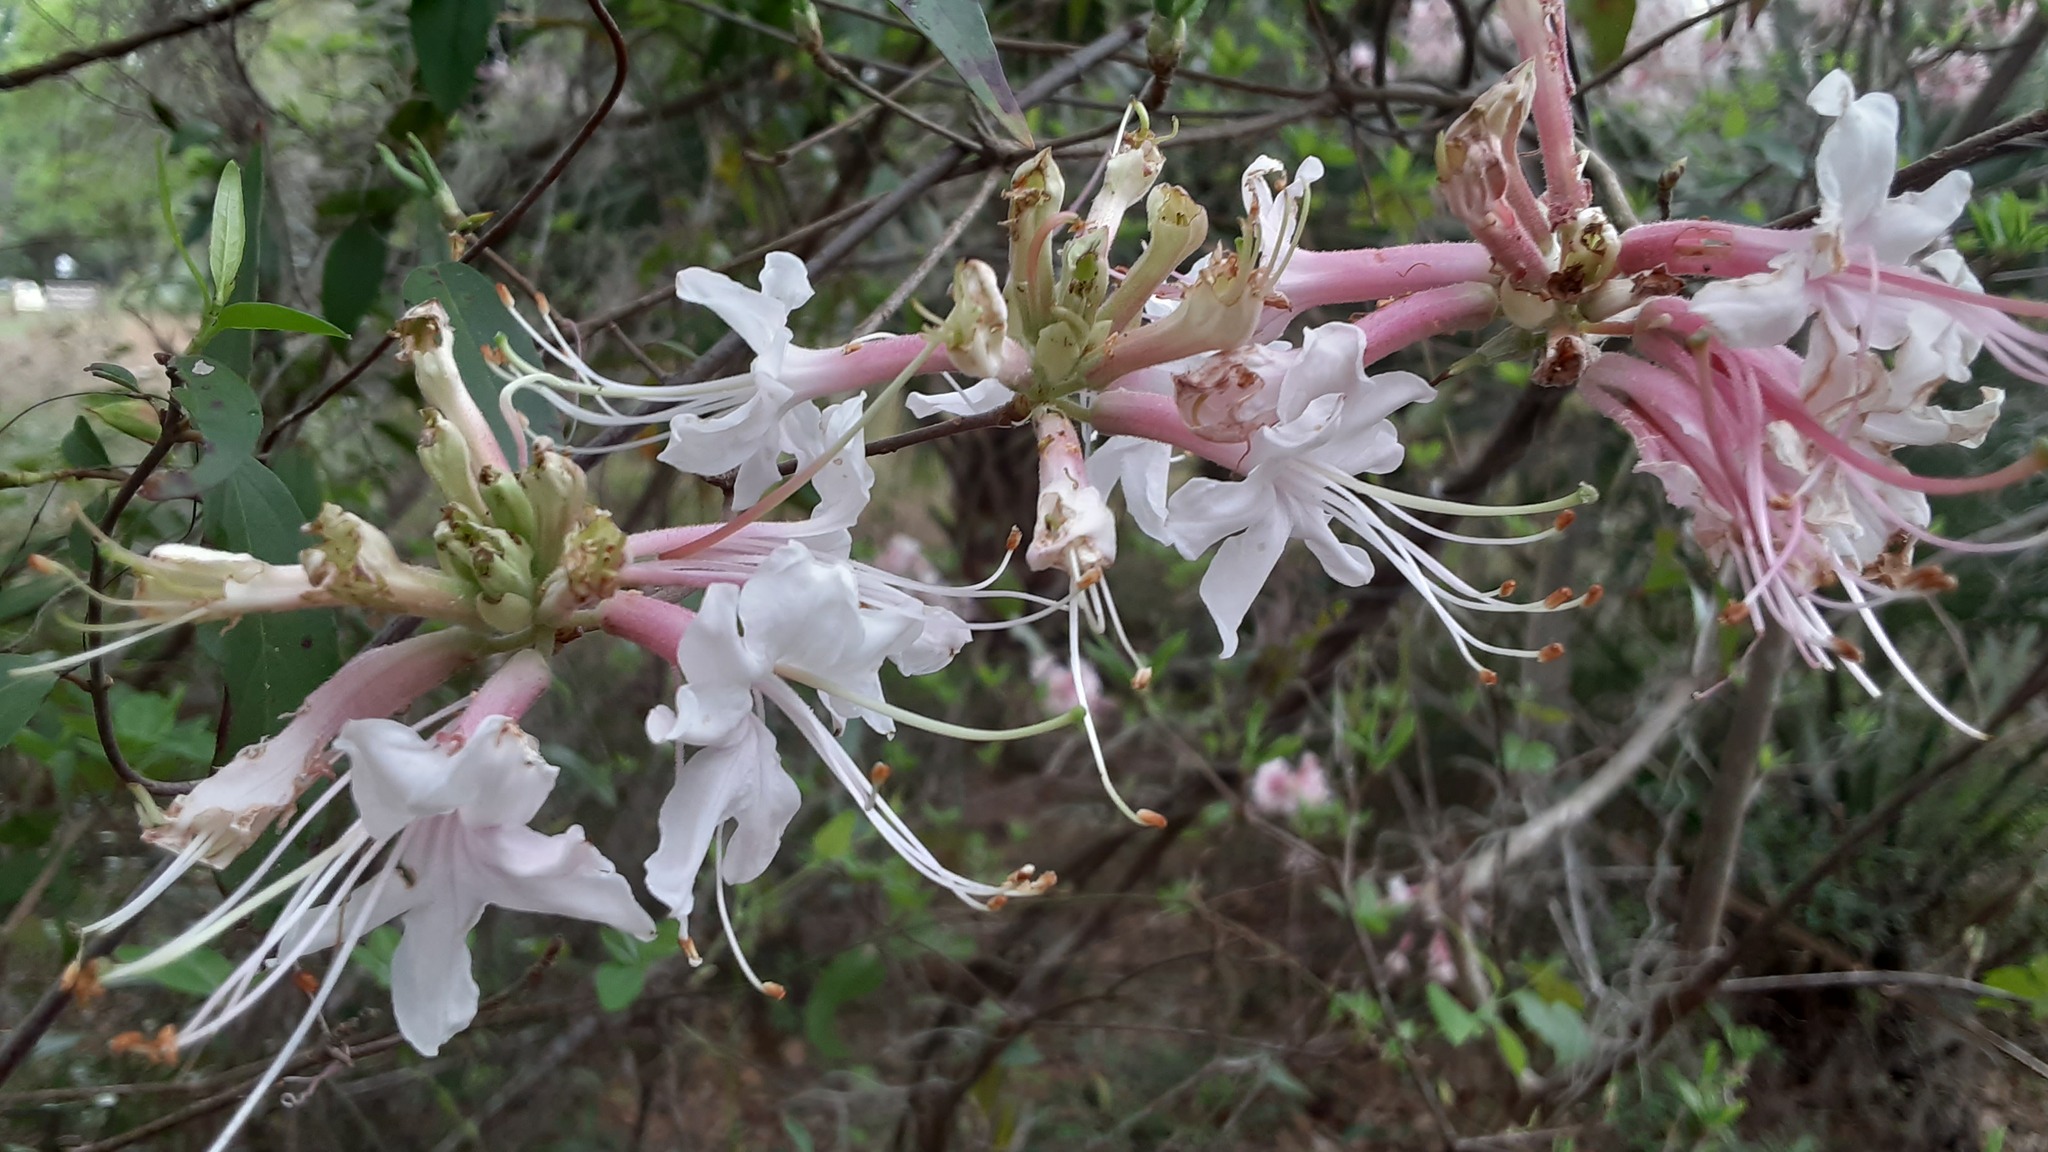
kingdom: Plantae
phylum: Tracheophyta
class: Magnoliopsida
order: Ericales
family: Ericaceae
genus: Rhododendron
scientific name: Rhododendron canescens
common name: Mountain azalea
